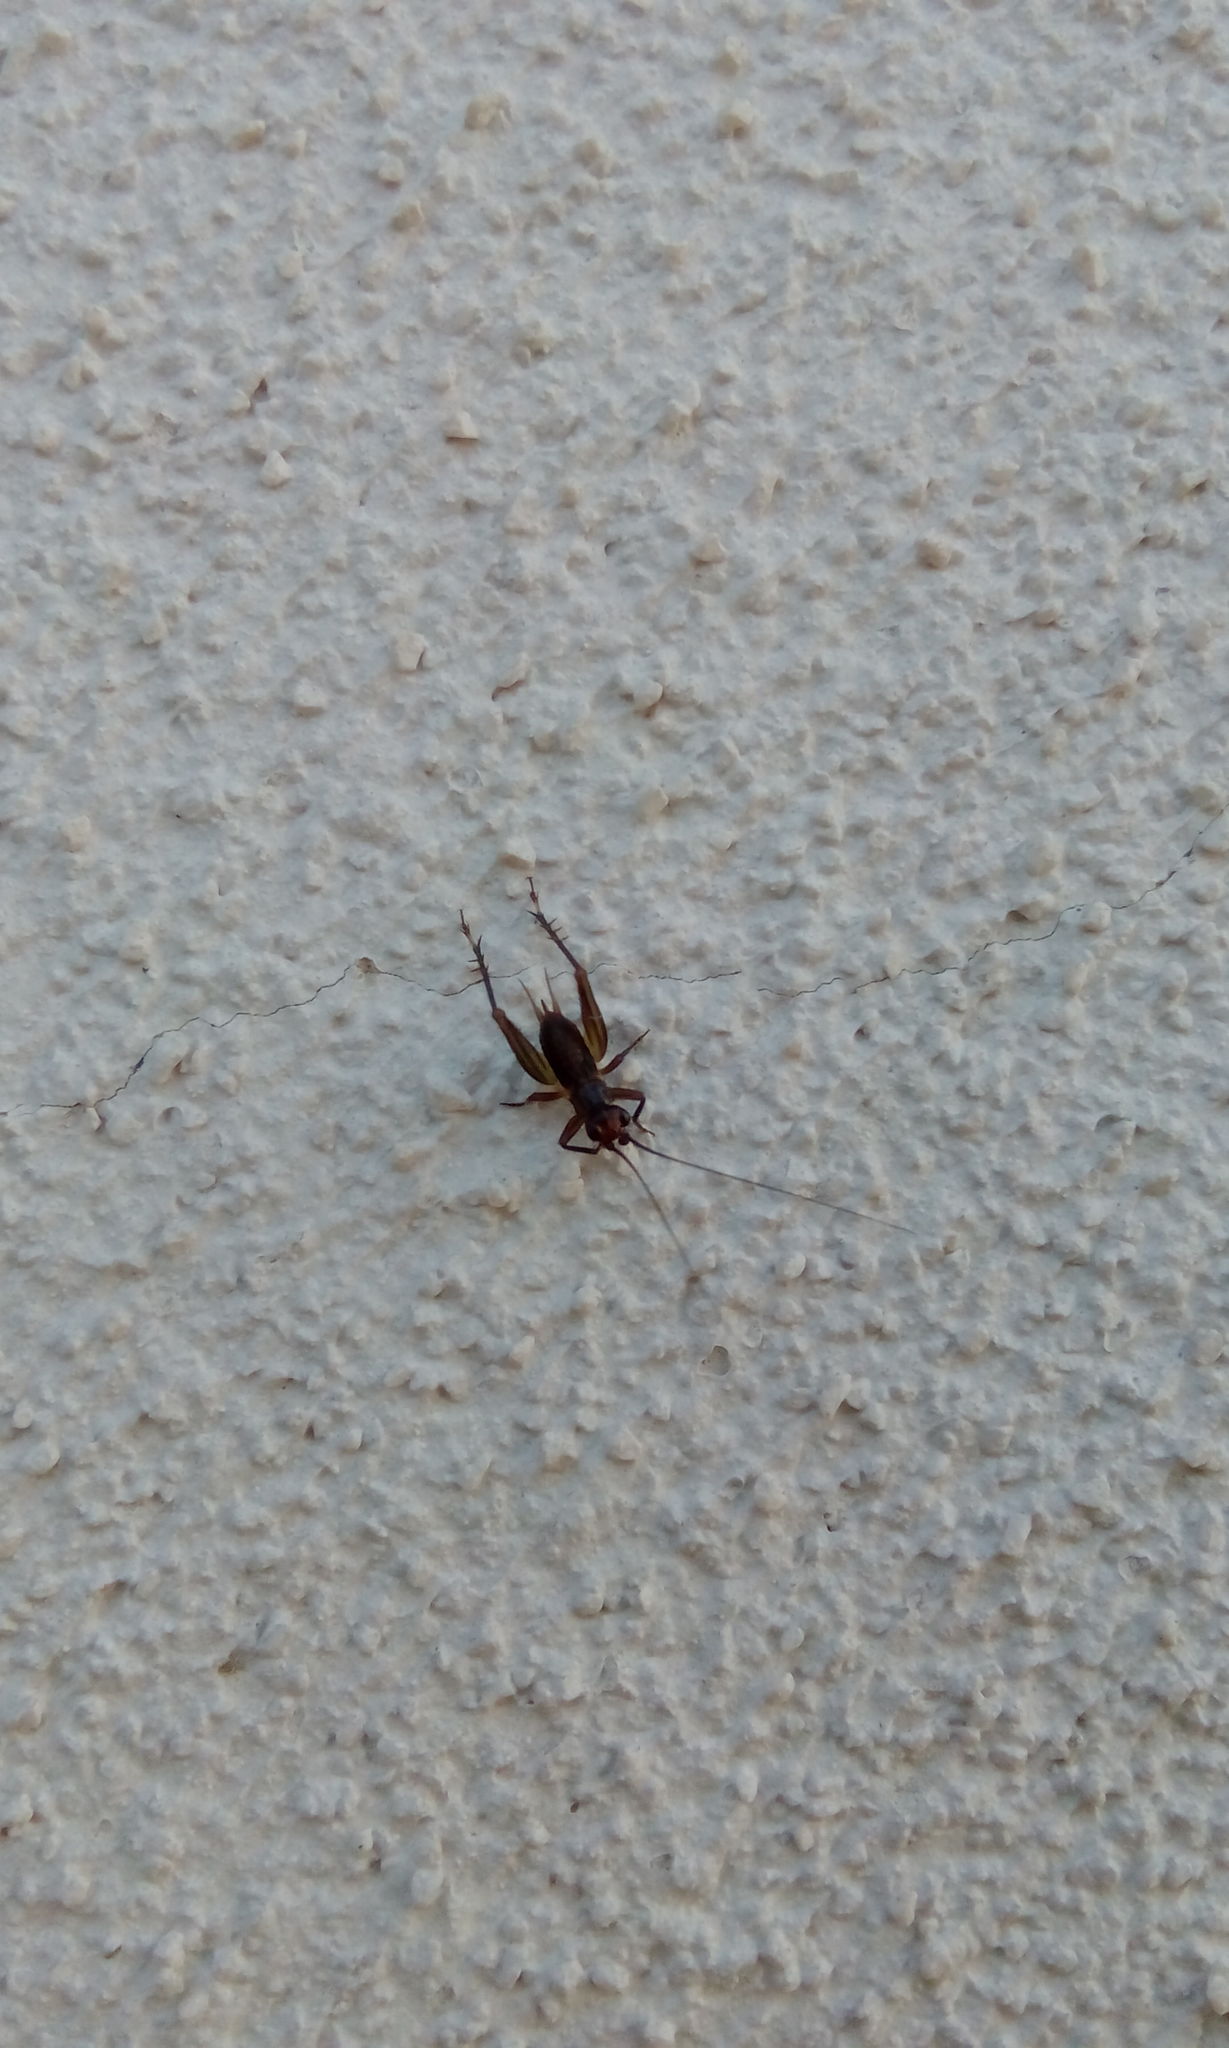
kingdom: Animalia
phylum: Arthropoda
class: Insecta
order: Orthoptera
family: Trigonidiidae
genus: Trigonidium
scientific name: Trigonidium cicindeloides
